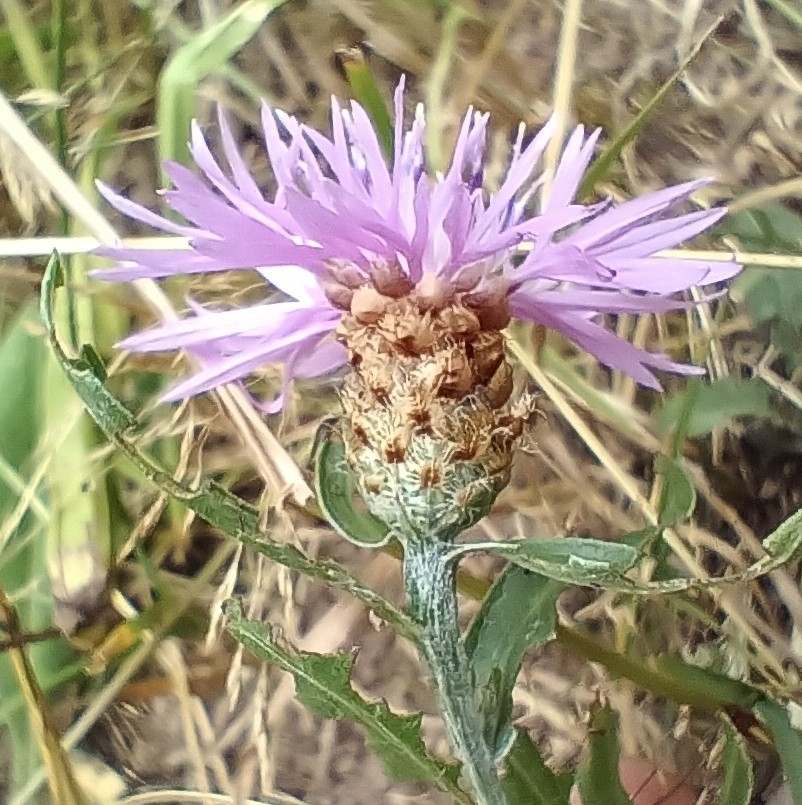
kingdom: Plantae
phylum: Tracheophyta
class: Magnoliopsida
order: Asterales
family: Asteraceae
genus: Centaurea
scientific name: Centaurea fleischeri
